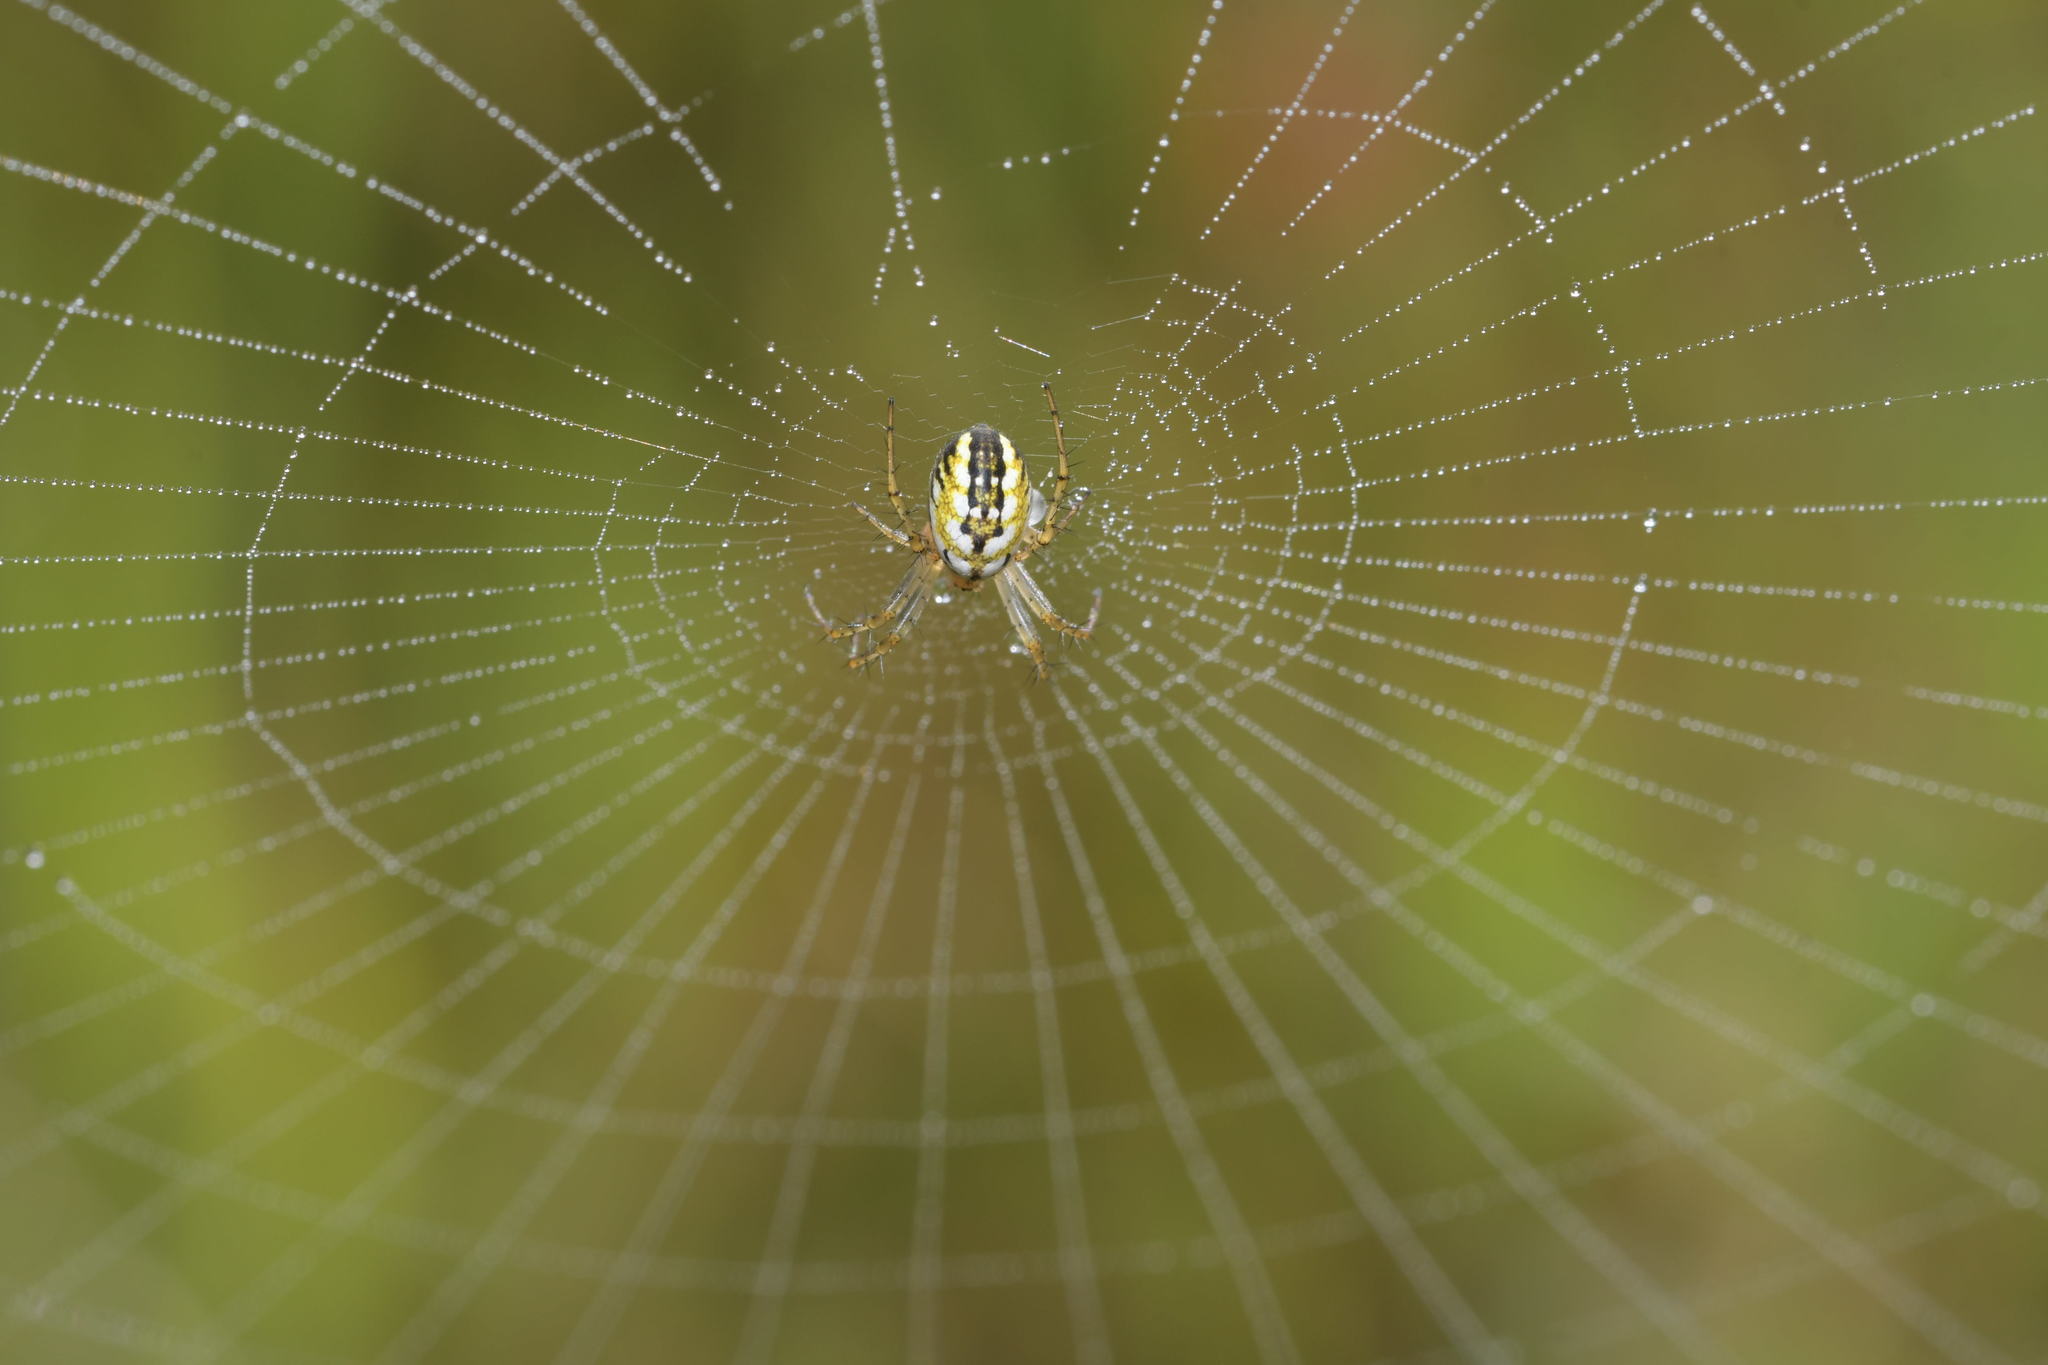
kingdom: Animalia
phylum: Arthropoda
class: Arachnida
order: Araneae
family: Araneidae
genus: Mangora
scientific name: Mangora acalypha
